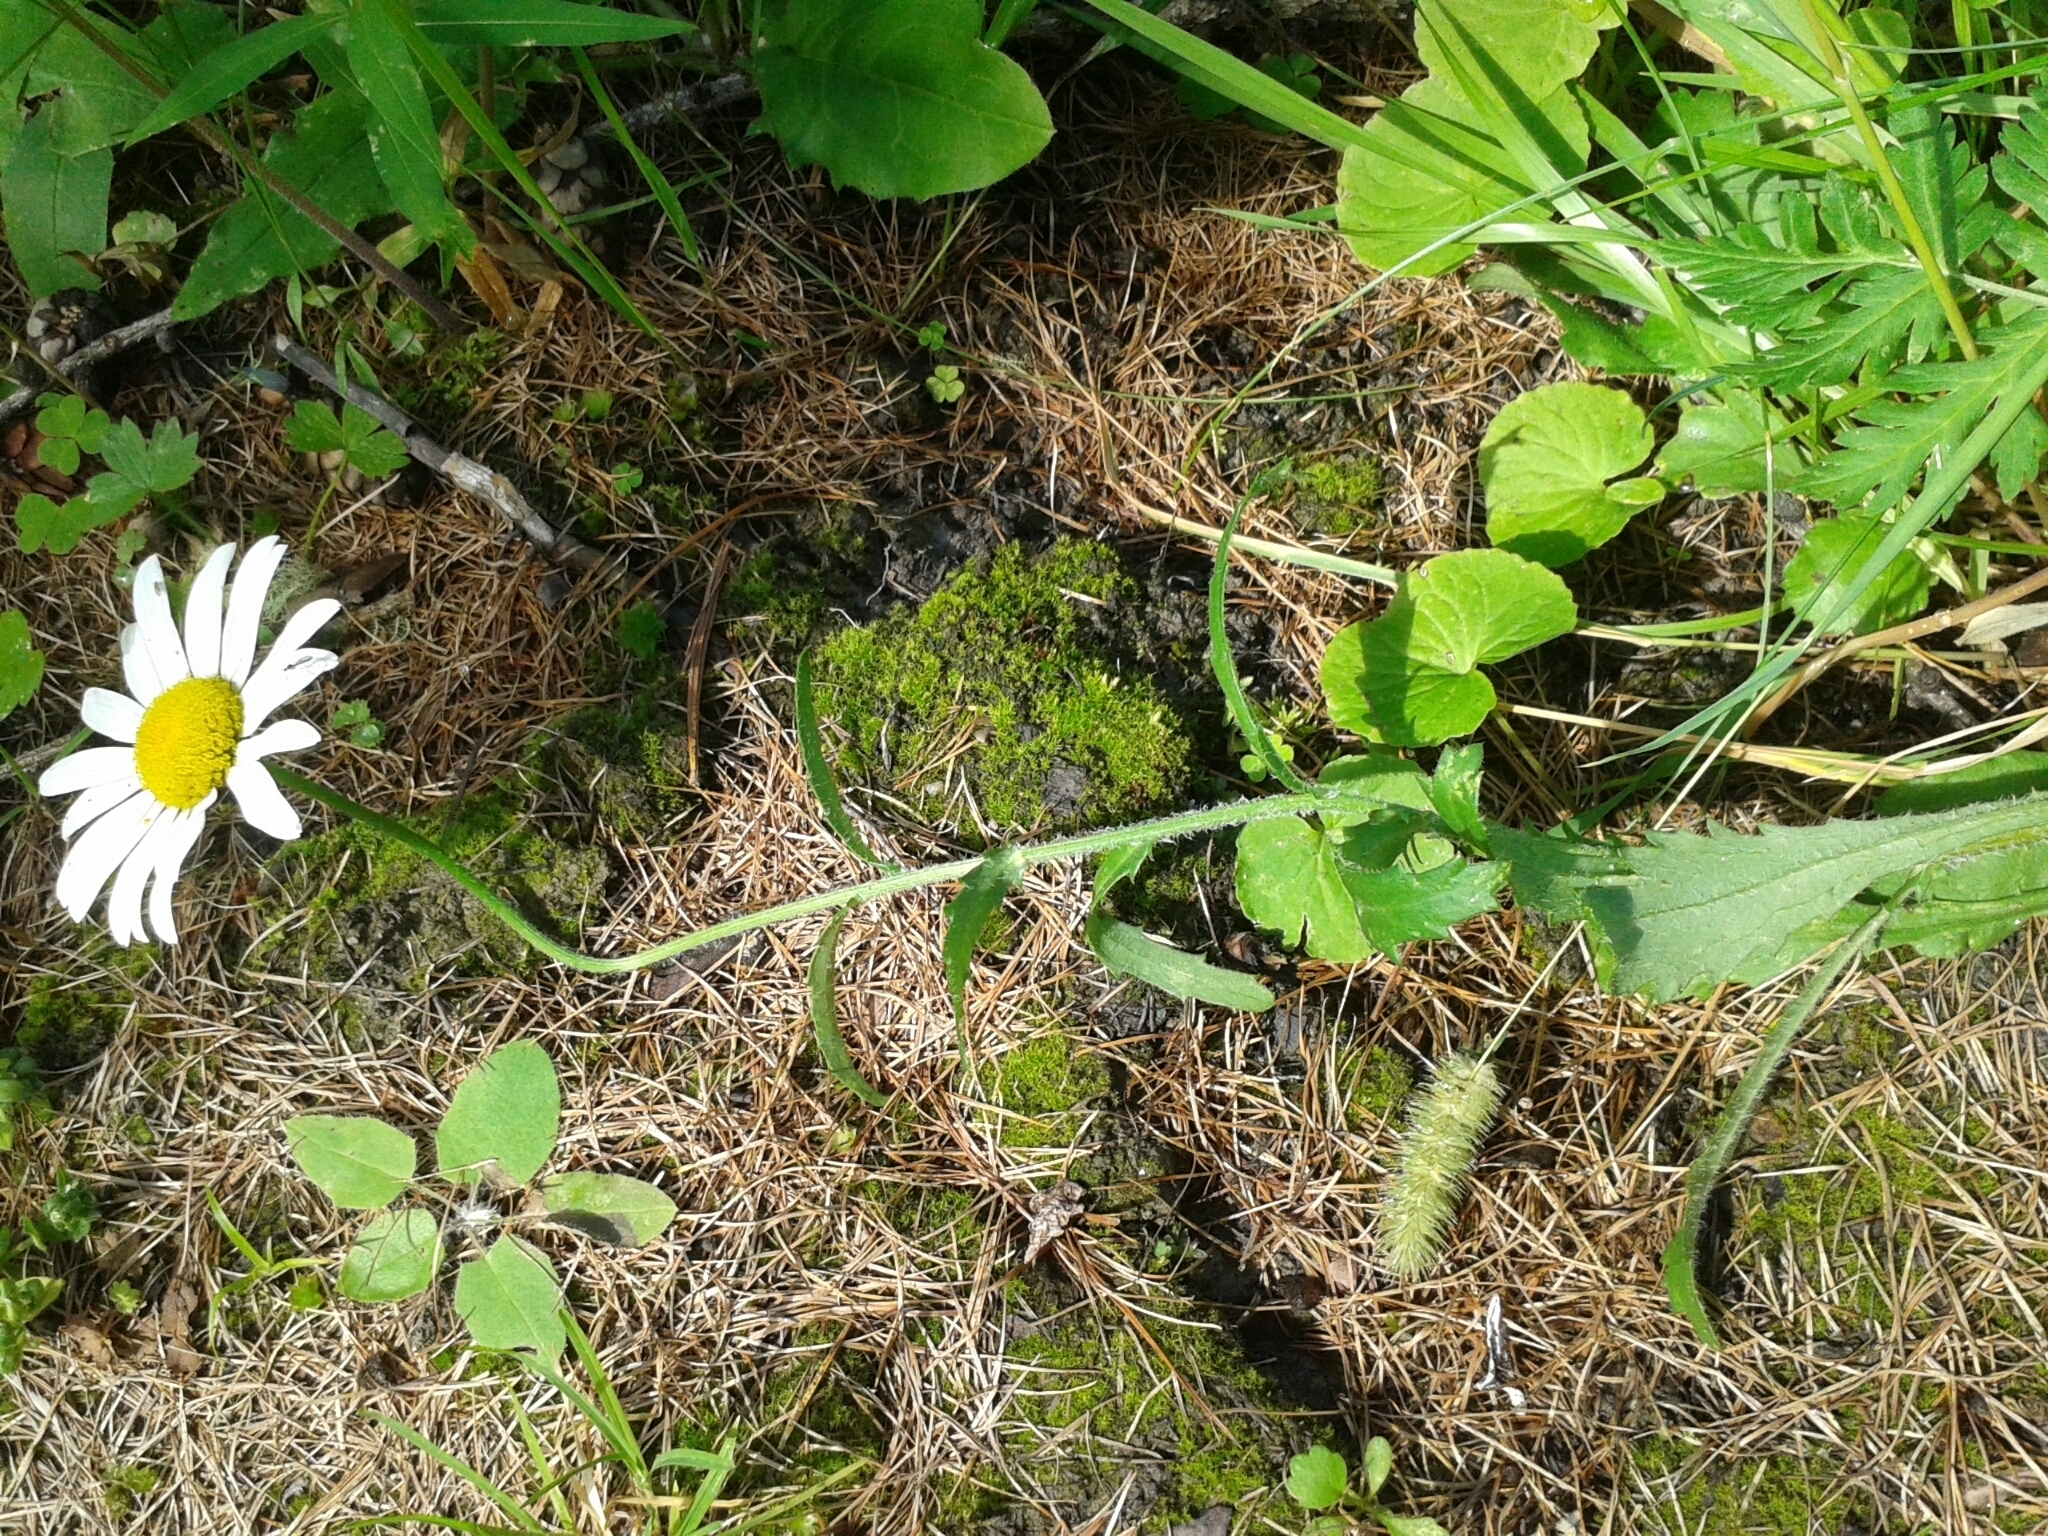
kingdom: Plantae
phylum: Tracheophyta
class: Magnoliopsida
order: Asterales
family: Asteraceae
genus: Leucanthemum
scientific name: Leucanthemum vulgare
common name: Oxeye daisy
